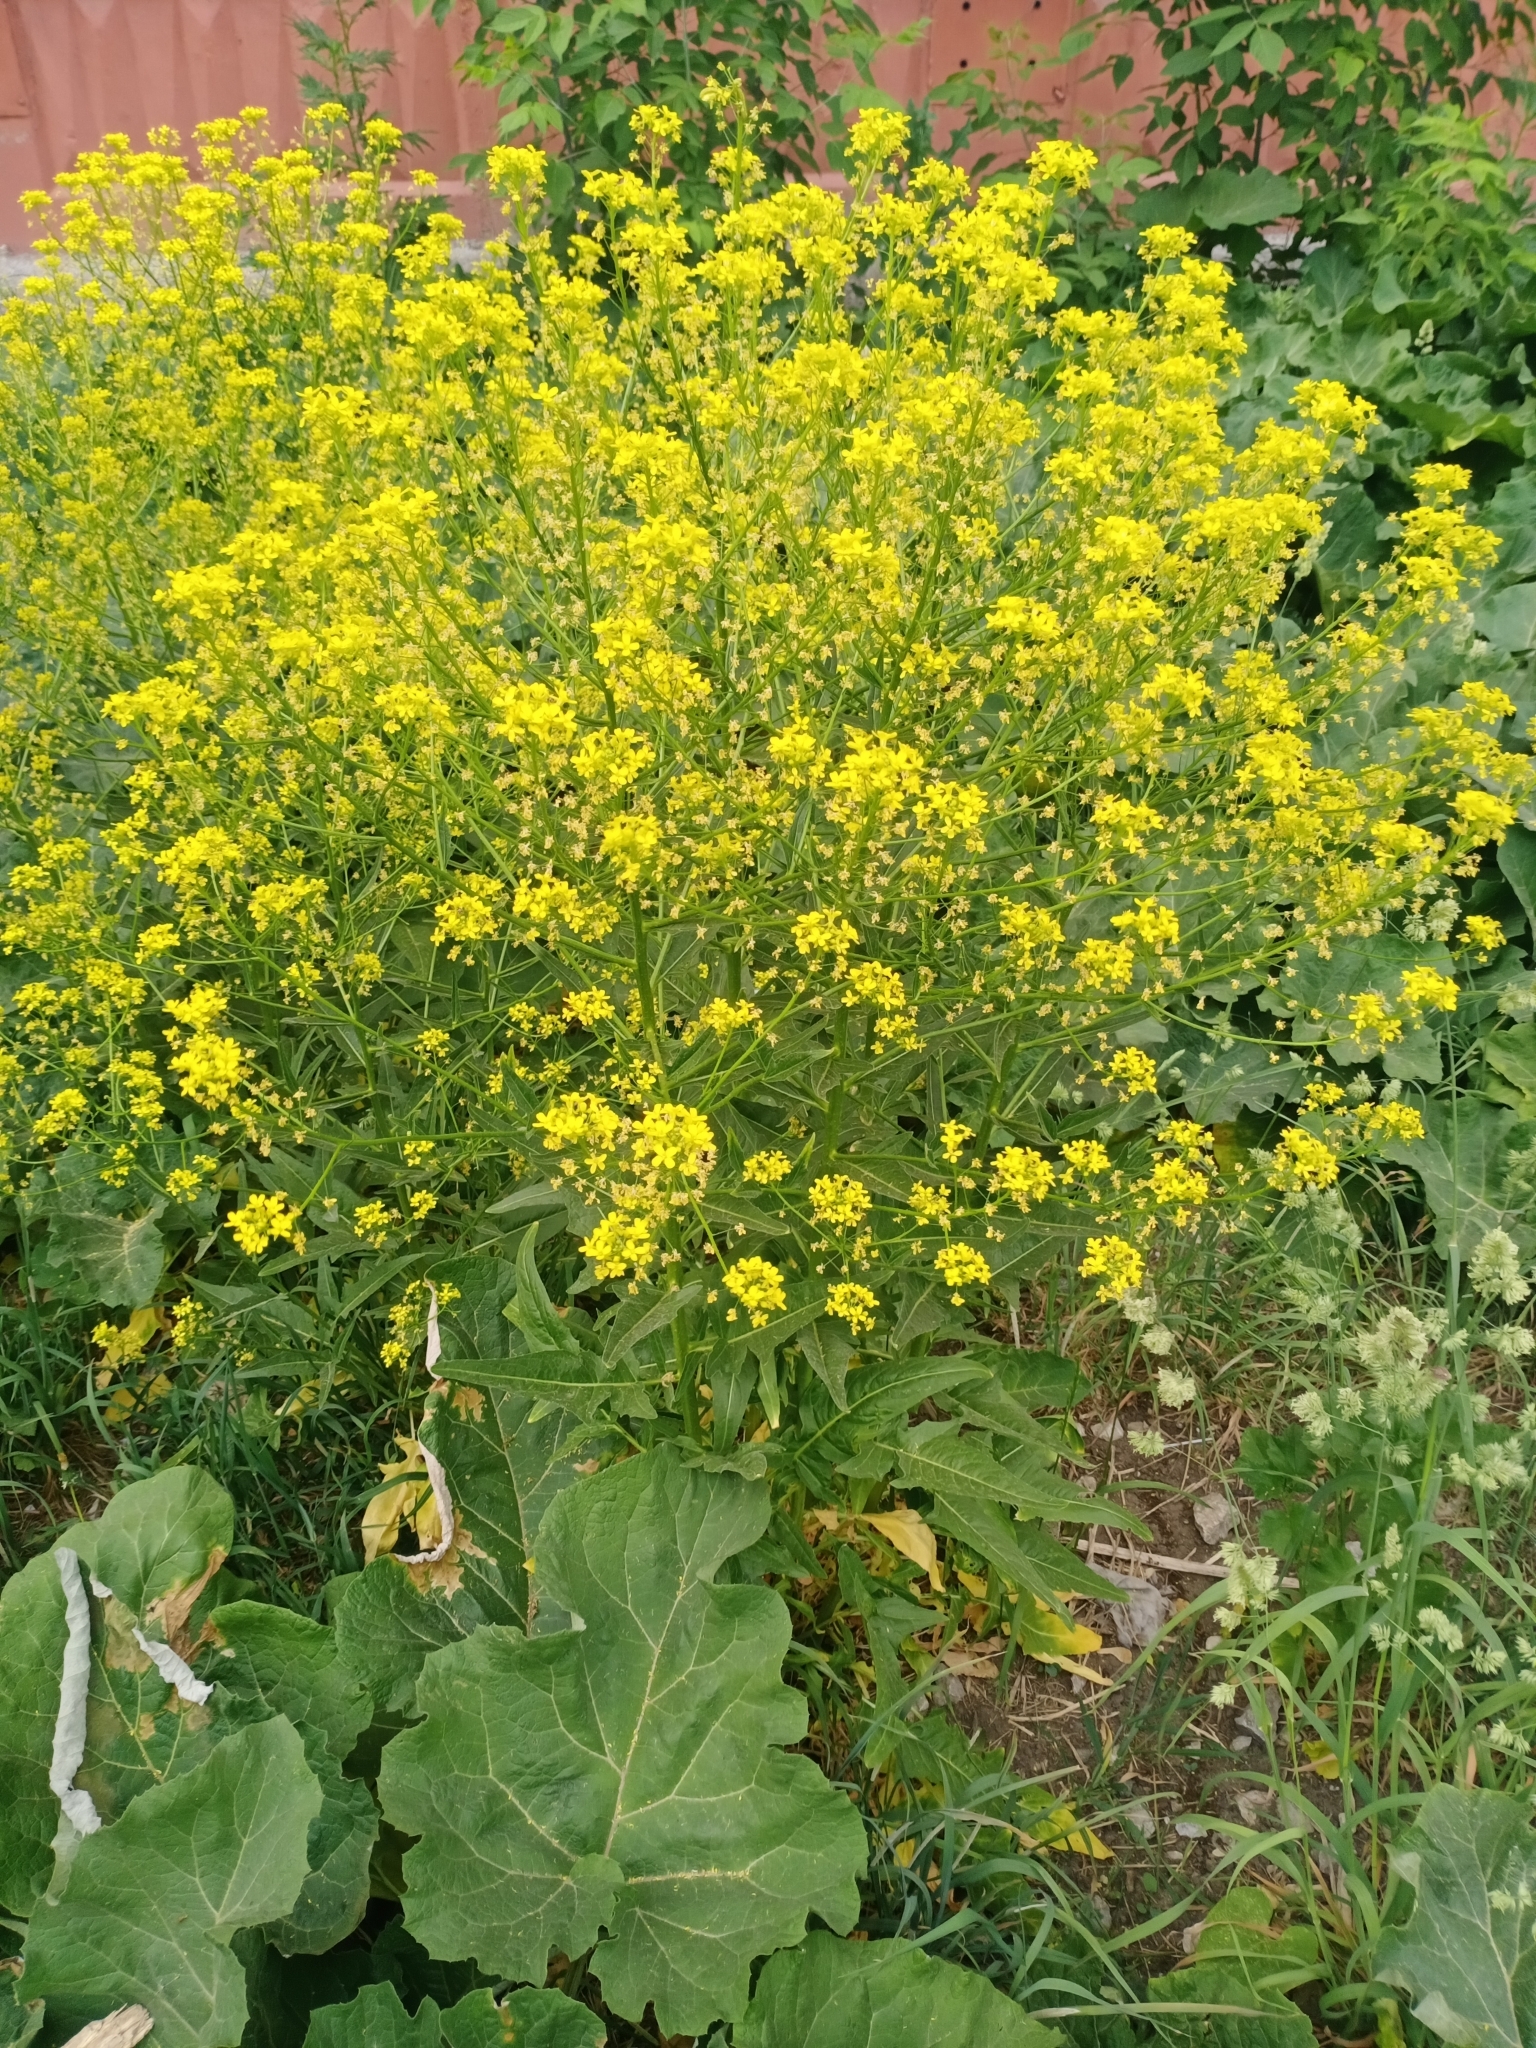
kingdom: Plantae
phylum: Tracheophyta
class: Magnoliopsida
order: Brassicales
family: Brassicaceae
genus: Bunias
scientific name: Bunias orientalis
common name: Warty-cabbage
